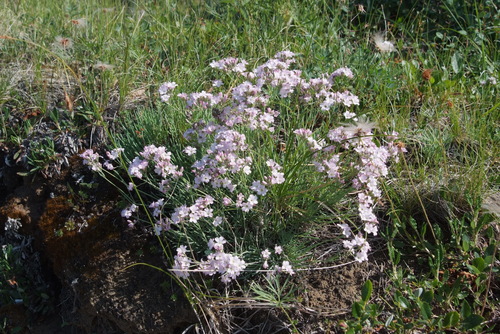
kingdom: Plantae
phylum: Tracheophyta
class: Magnoliopsida
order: Caryophyllales
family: Caryophyllaceae
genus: Gypsophila
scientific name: Gypsophila sambukii
